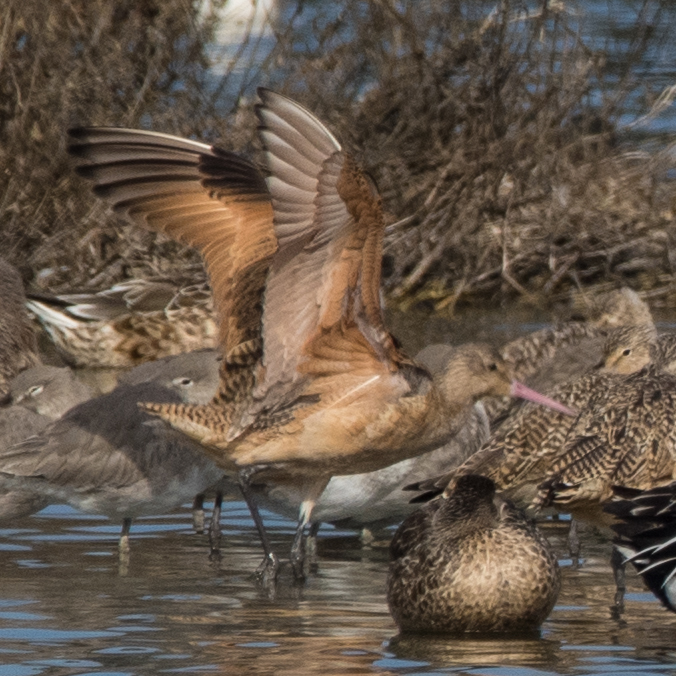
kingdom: Animalia
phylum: Chordata
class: Aves
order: Charadriiformes
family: Scolopacidae
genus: Limosa
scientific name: Limosa fedoa
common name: Marbled godwit
